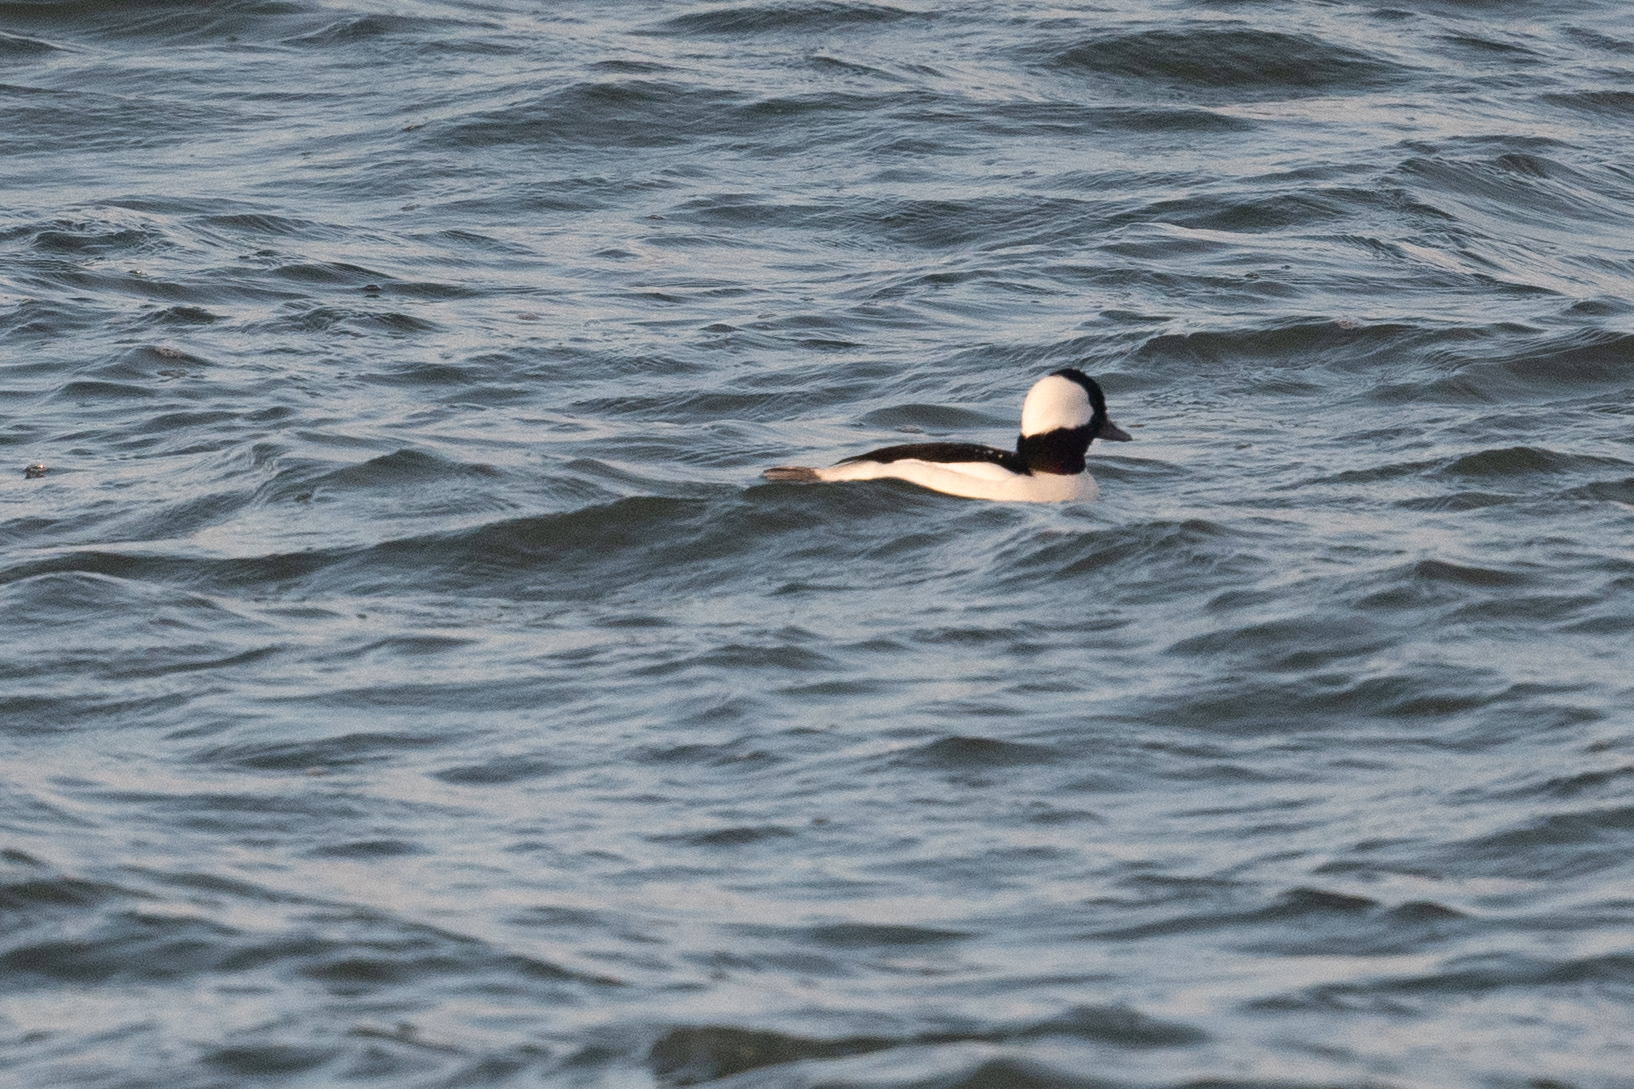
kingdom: Animalia
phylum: Chordata
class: Aves
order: Anseriformes
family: Anatidae
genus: Bucephala
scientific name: Bucephala albeola
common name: Bufflehead
